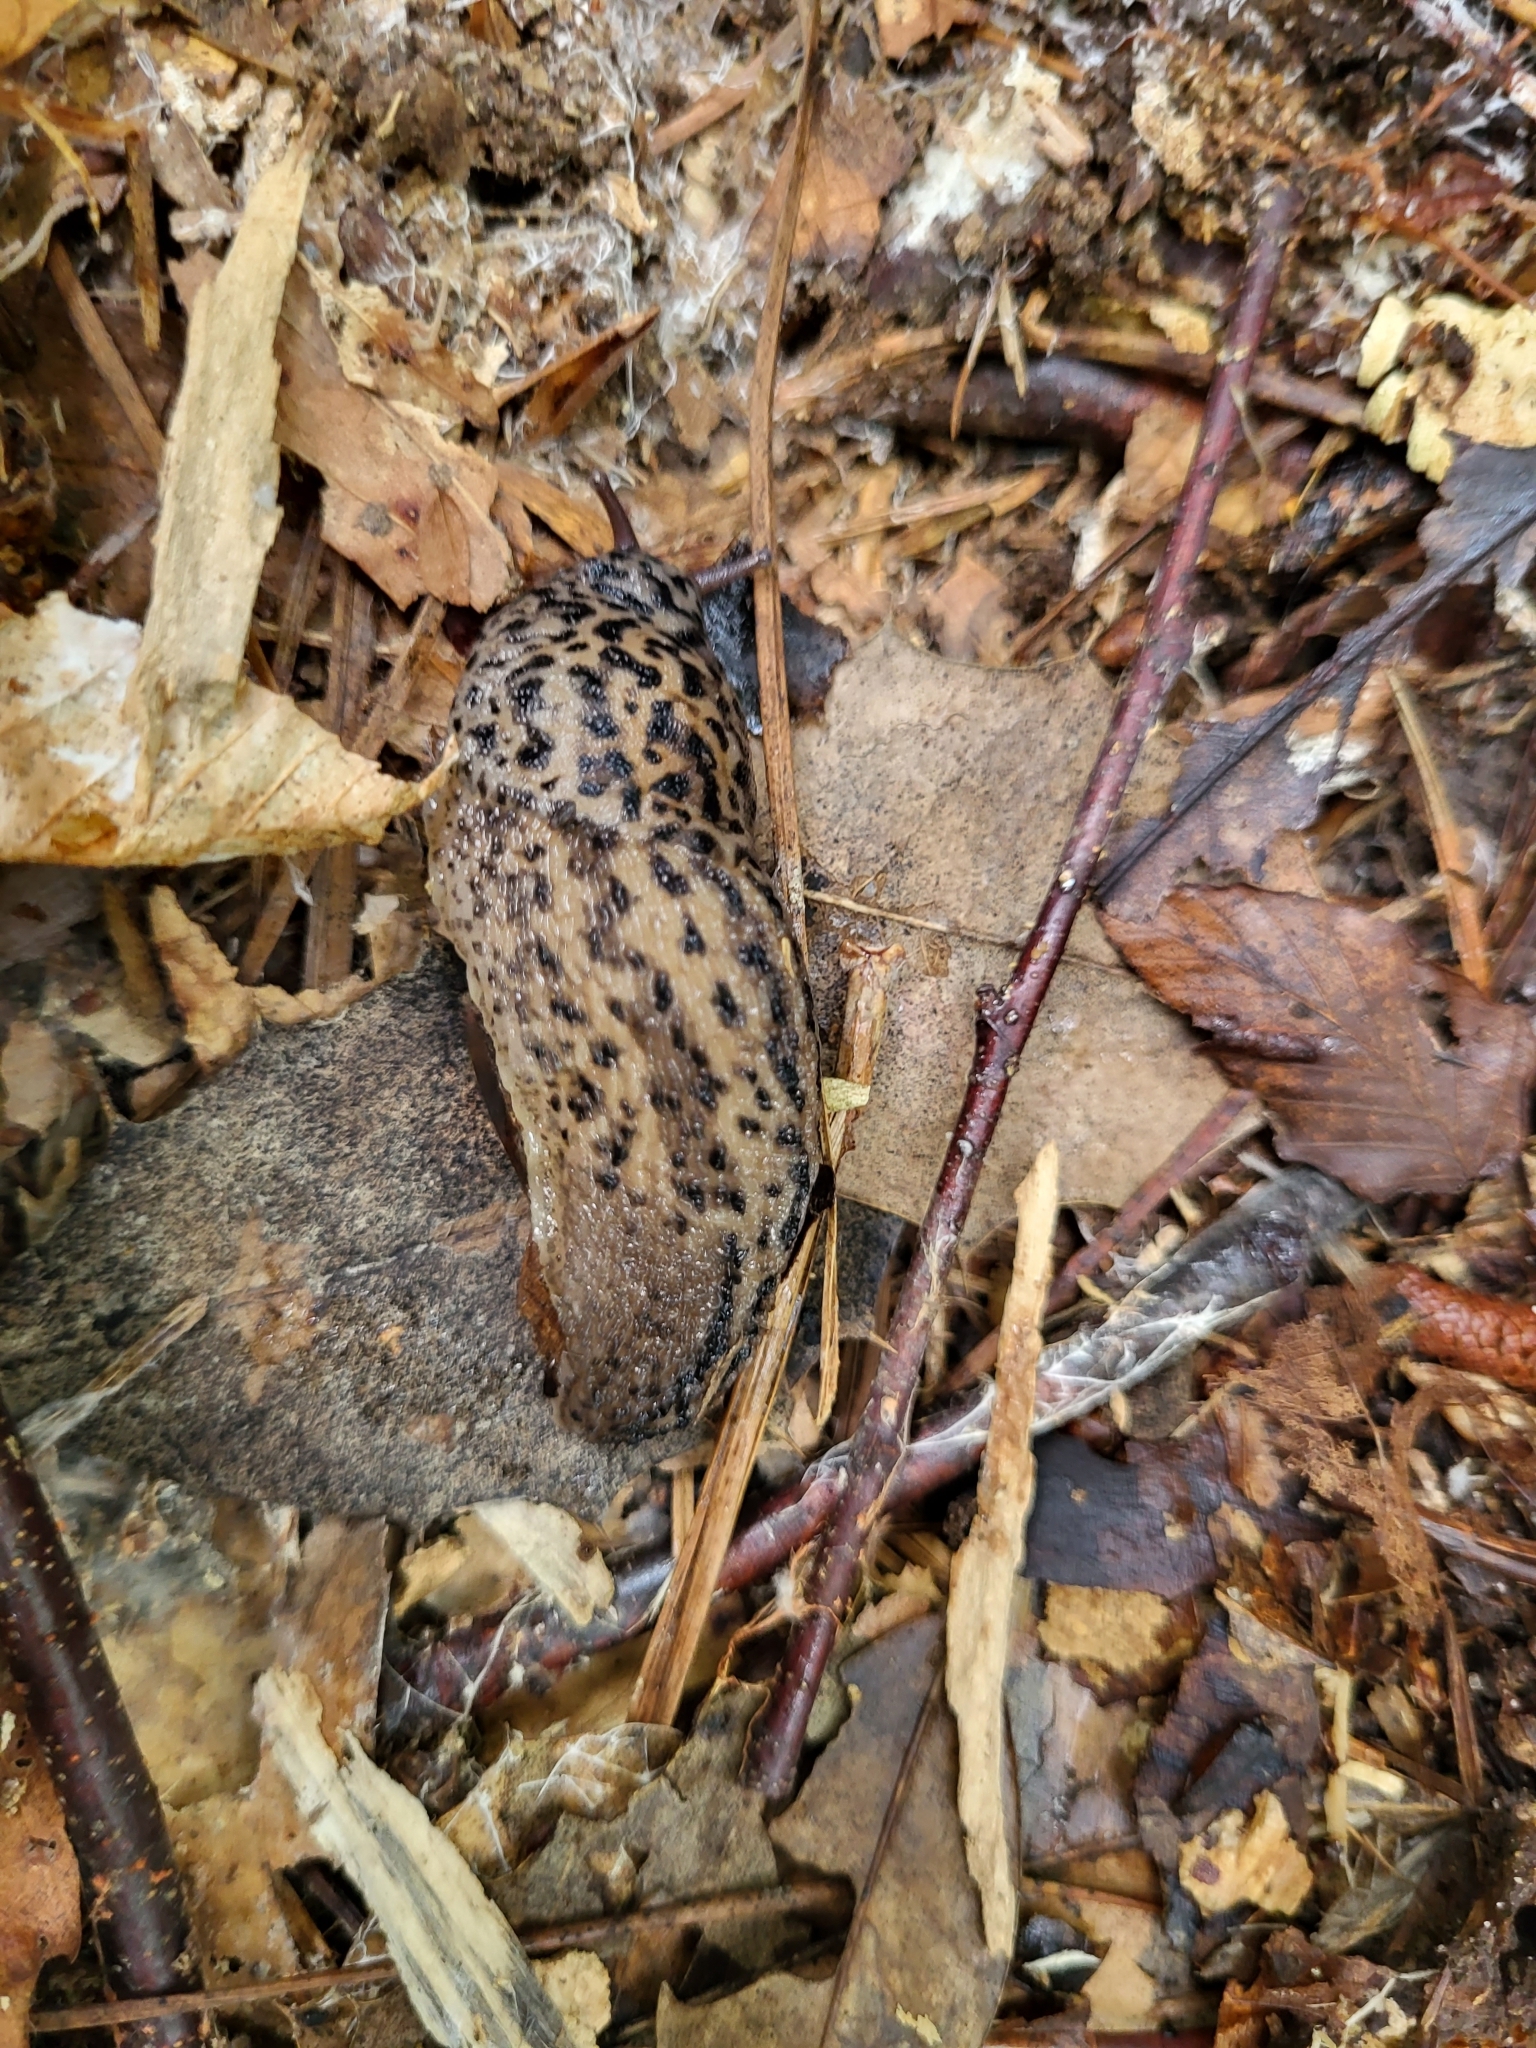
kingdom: Animalia
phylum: Mollusca
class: Gastropoda
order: Stylommatophora
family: Limacidae
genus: Limax
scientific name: Limax maximus
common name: Great grey slug
